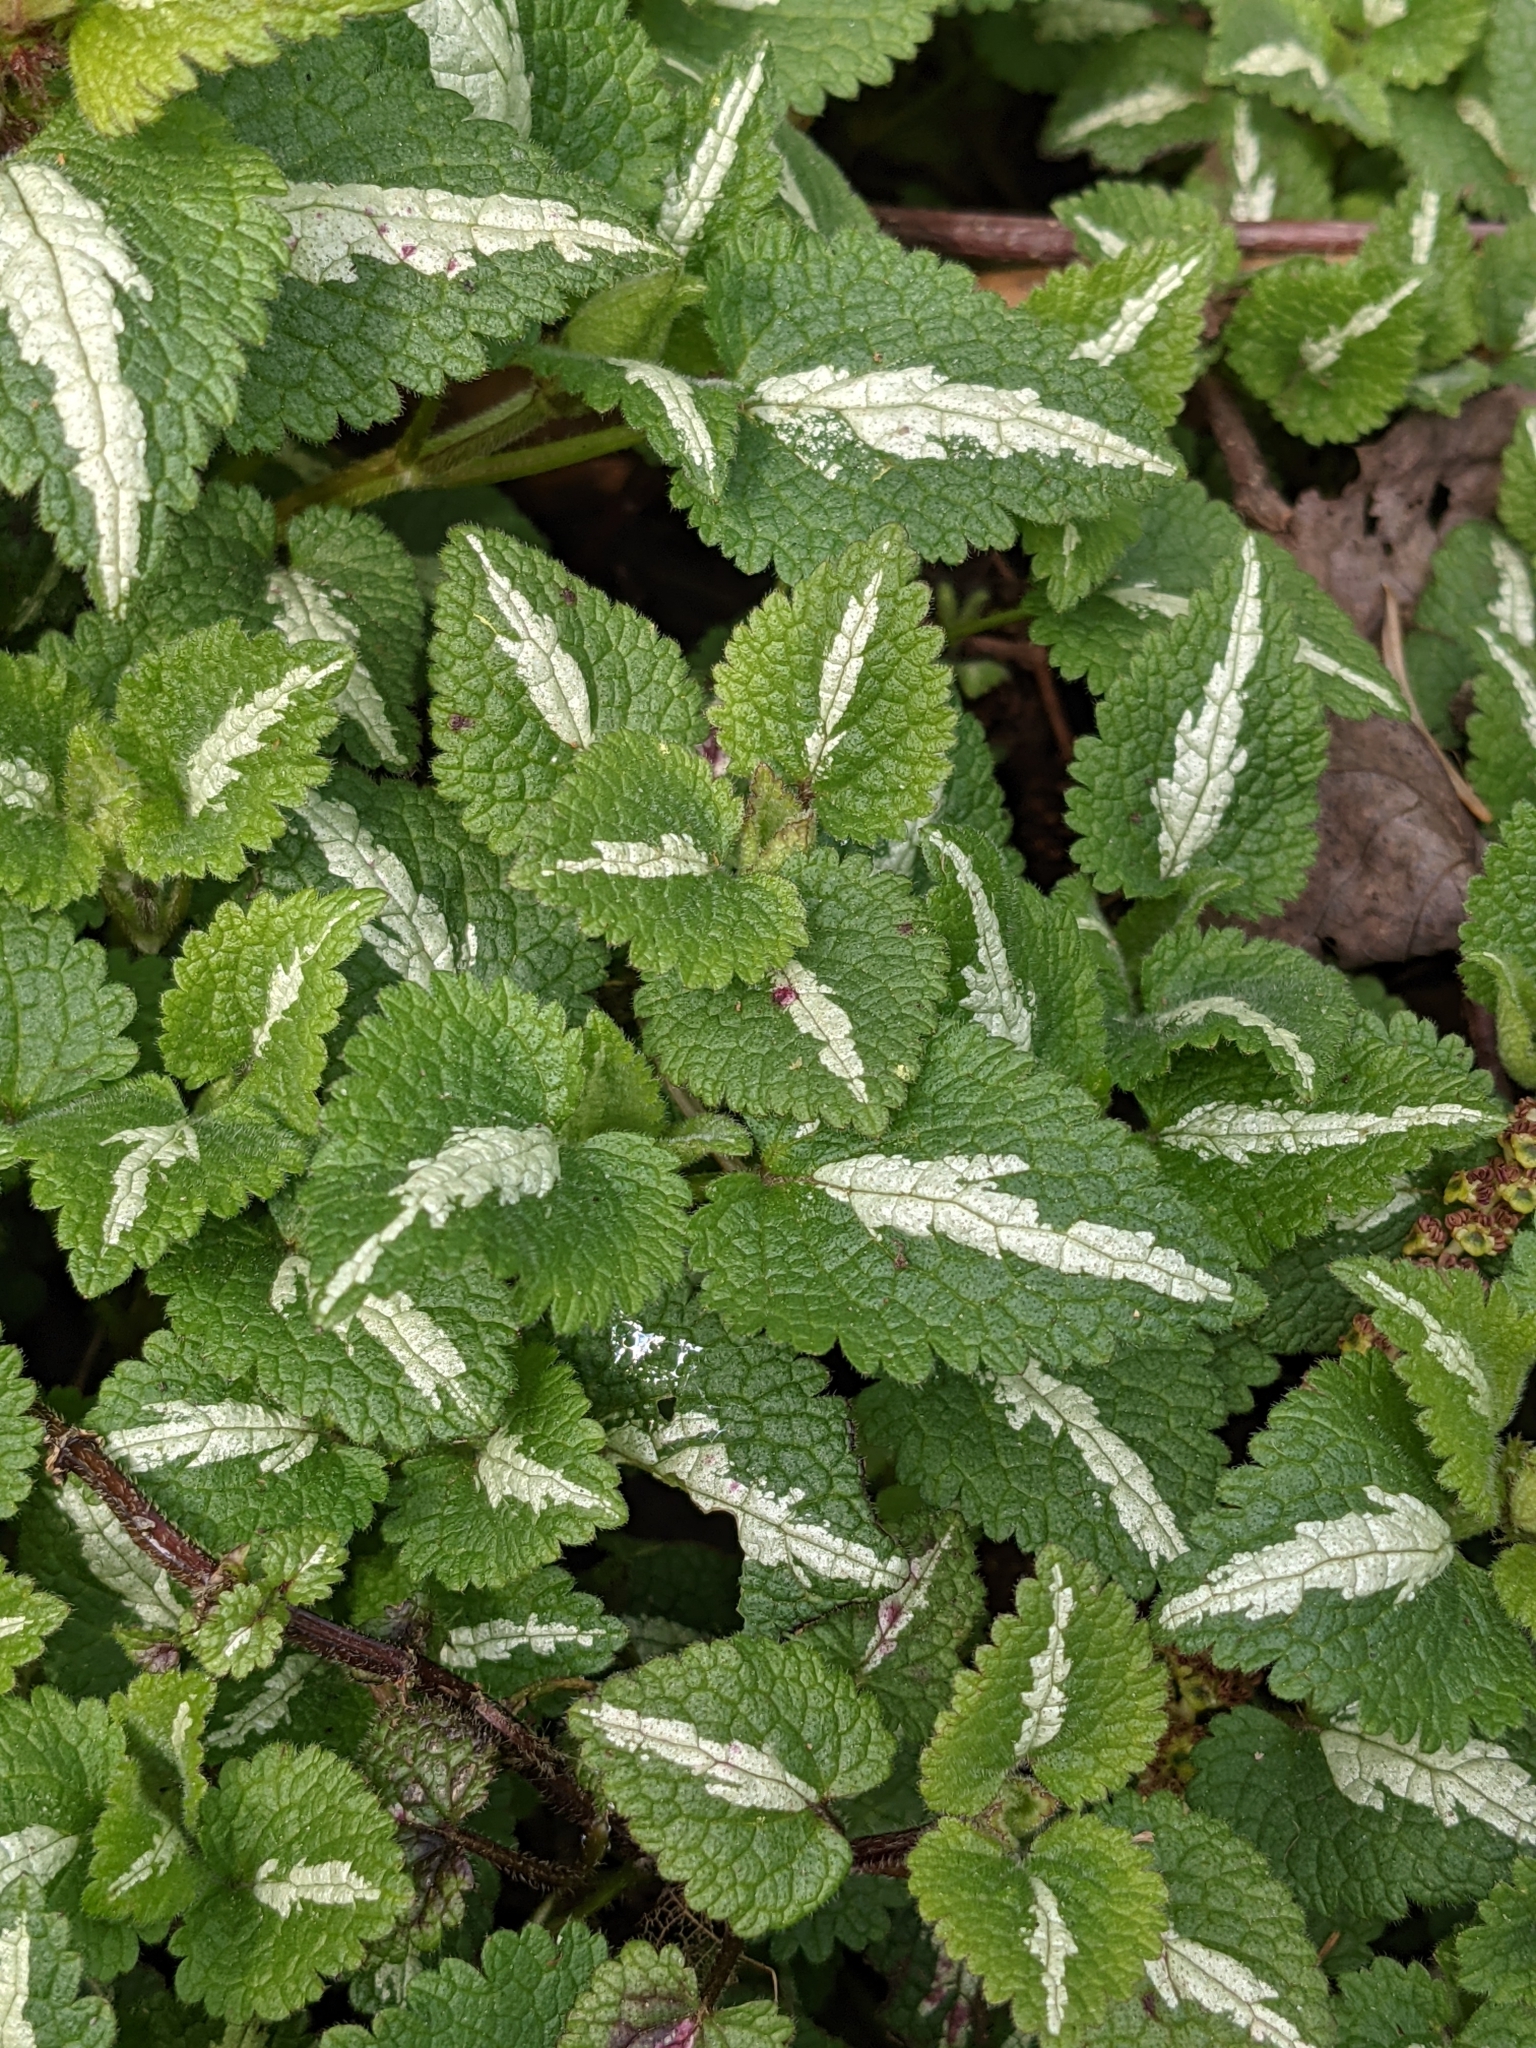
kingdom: Plantae
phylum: Tracheophyta
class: Magnoliopsida
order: Lamiales
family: Lamiaceae
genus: Lamium
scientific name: Lamium maculatum
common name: Spotted dead-nettle
